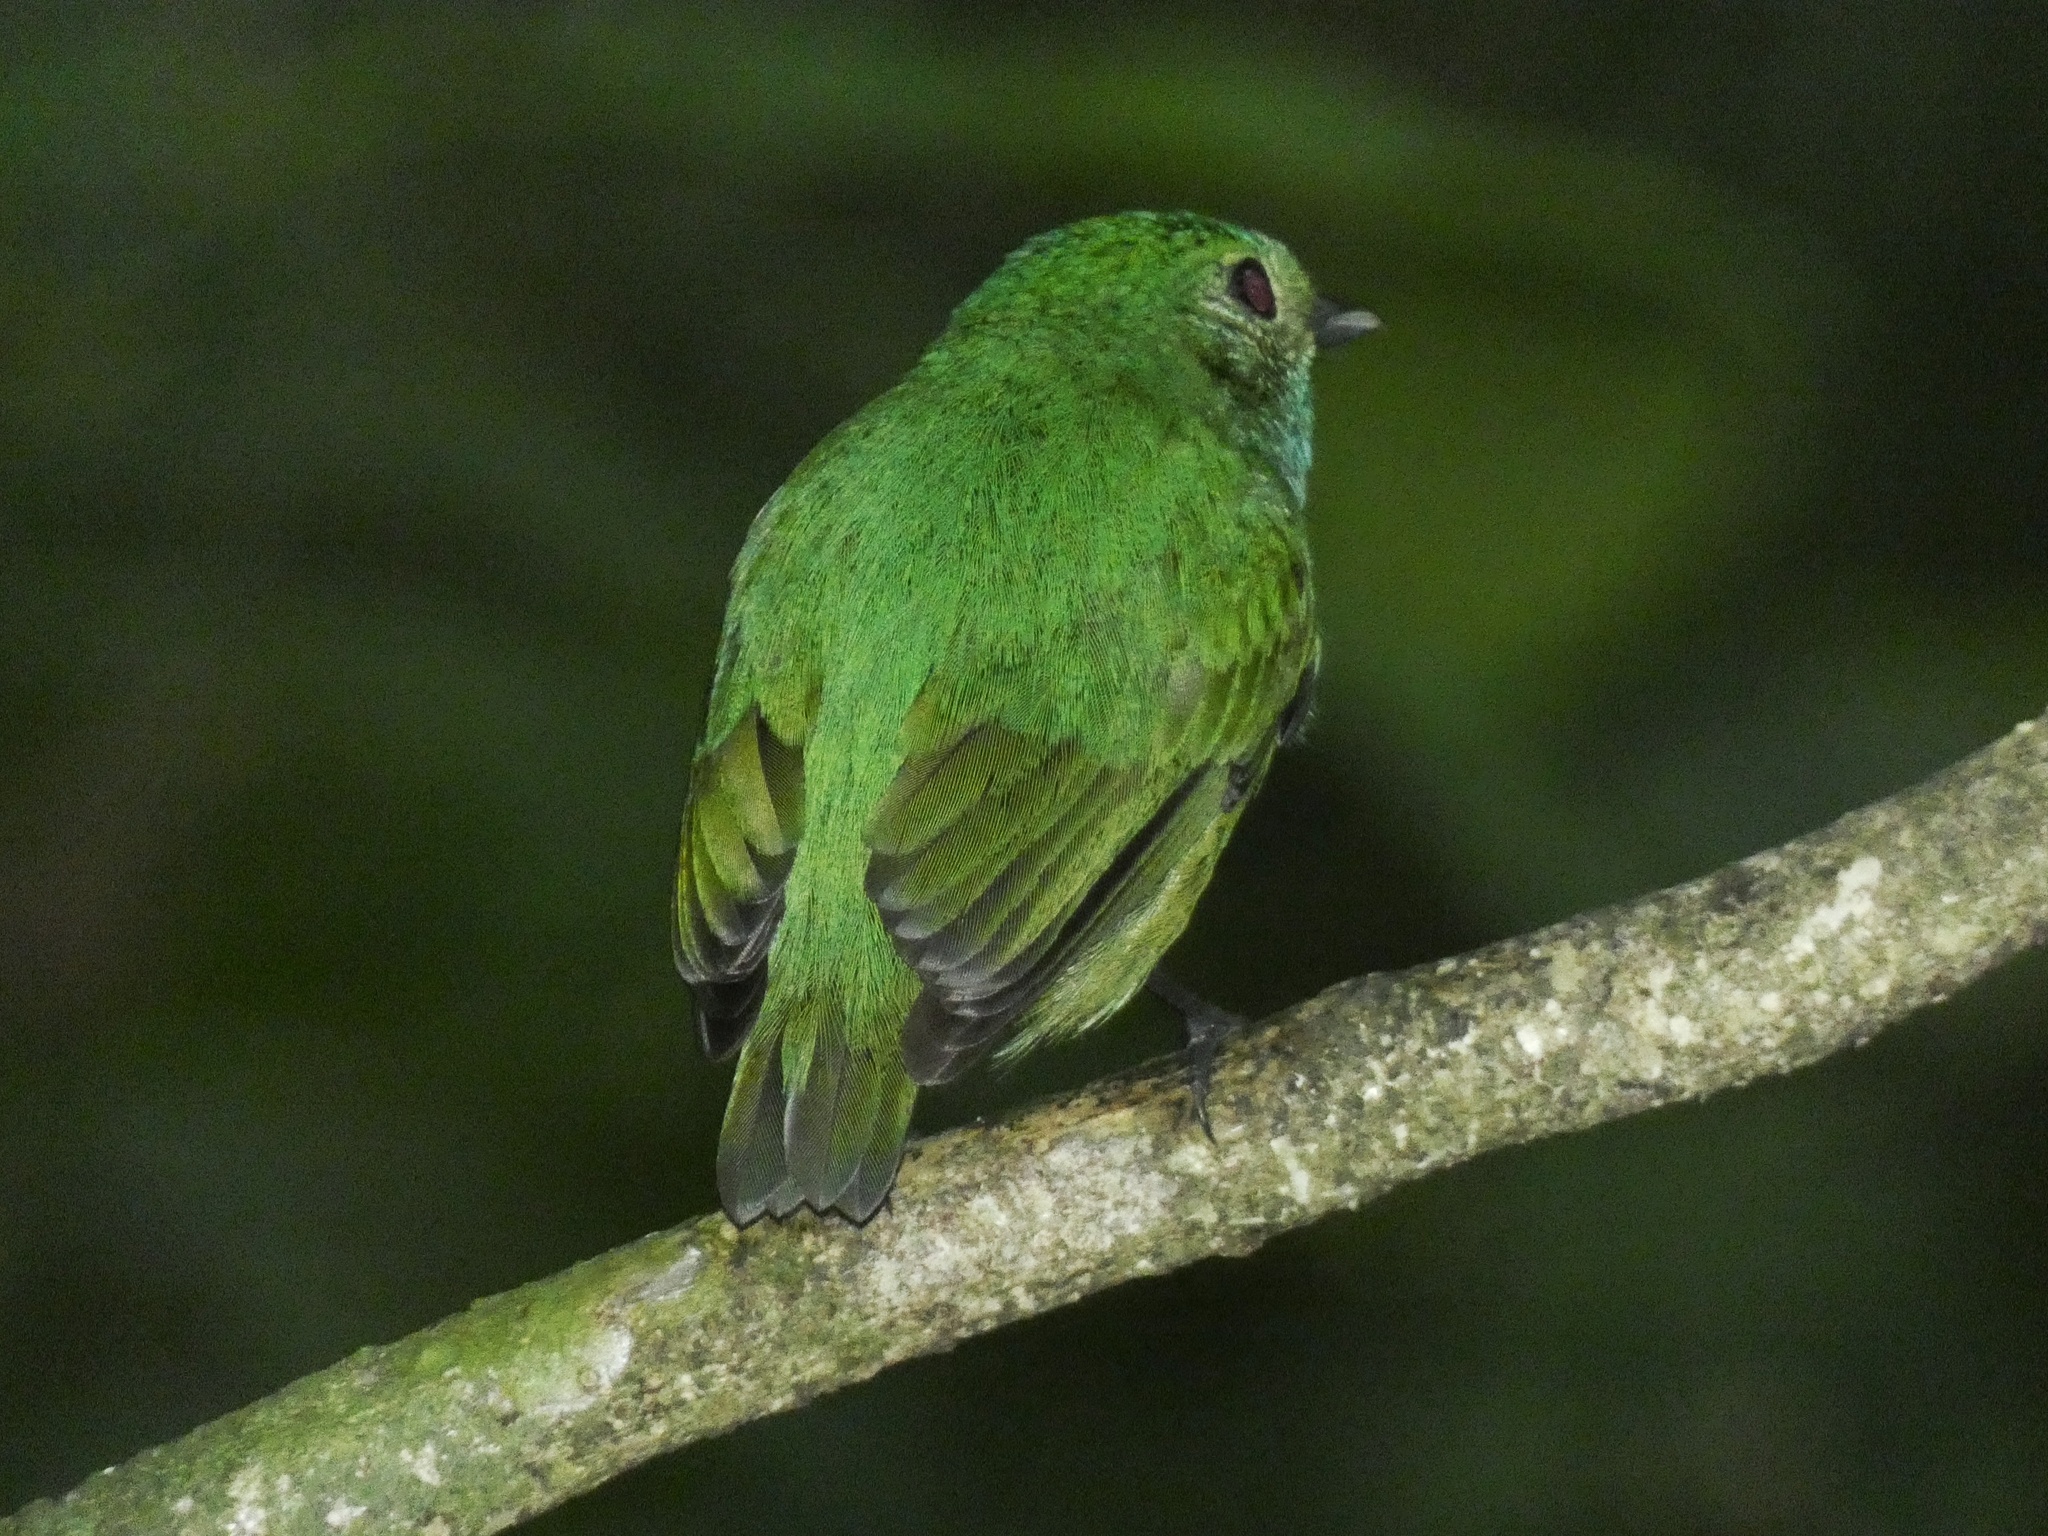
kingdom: Animalia
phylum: Chordata
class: Aves
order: Passeriformes
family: Pipridae
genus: Lepidothrix
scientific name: Lepidothrix coronata
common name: Blue-crowned manakin
